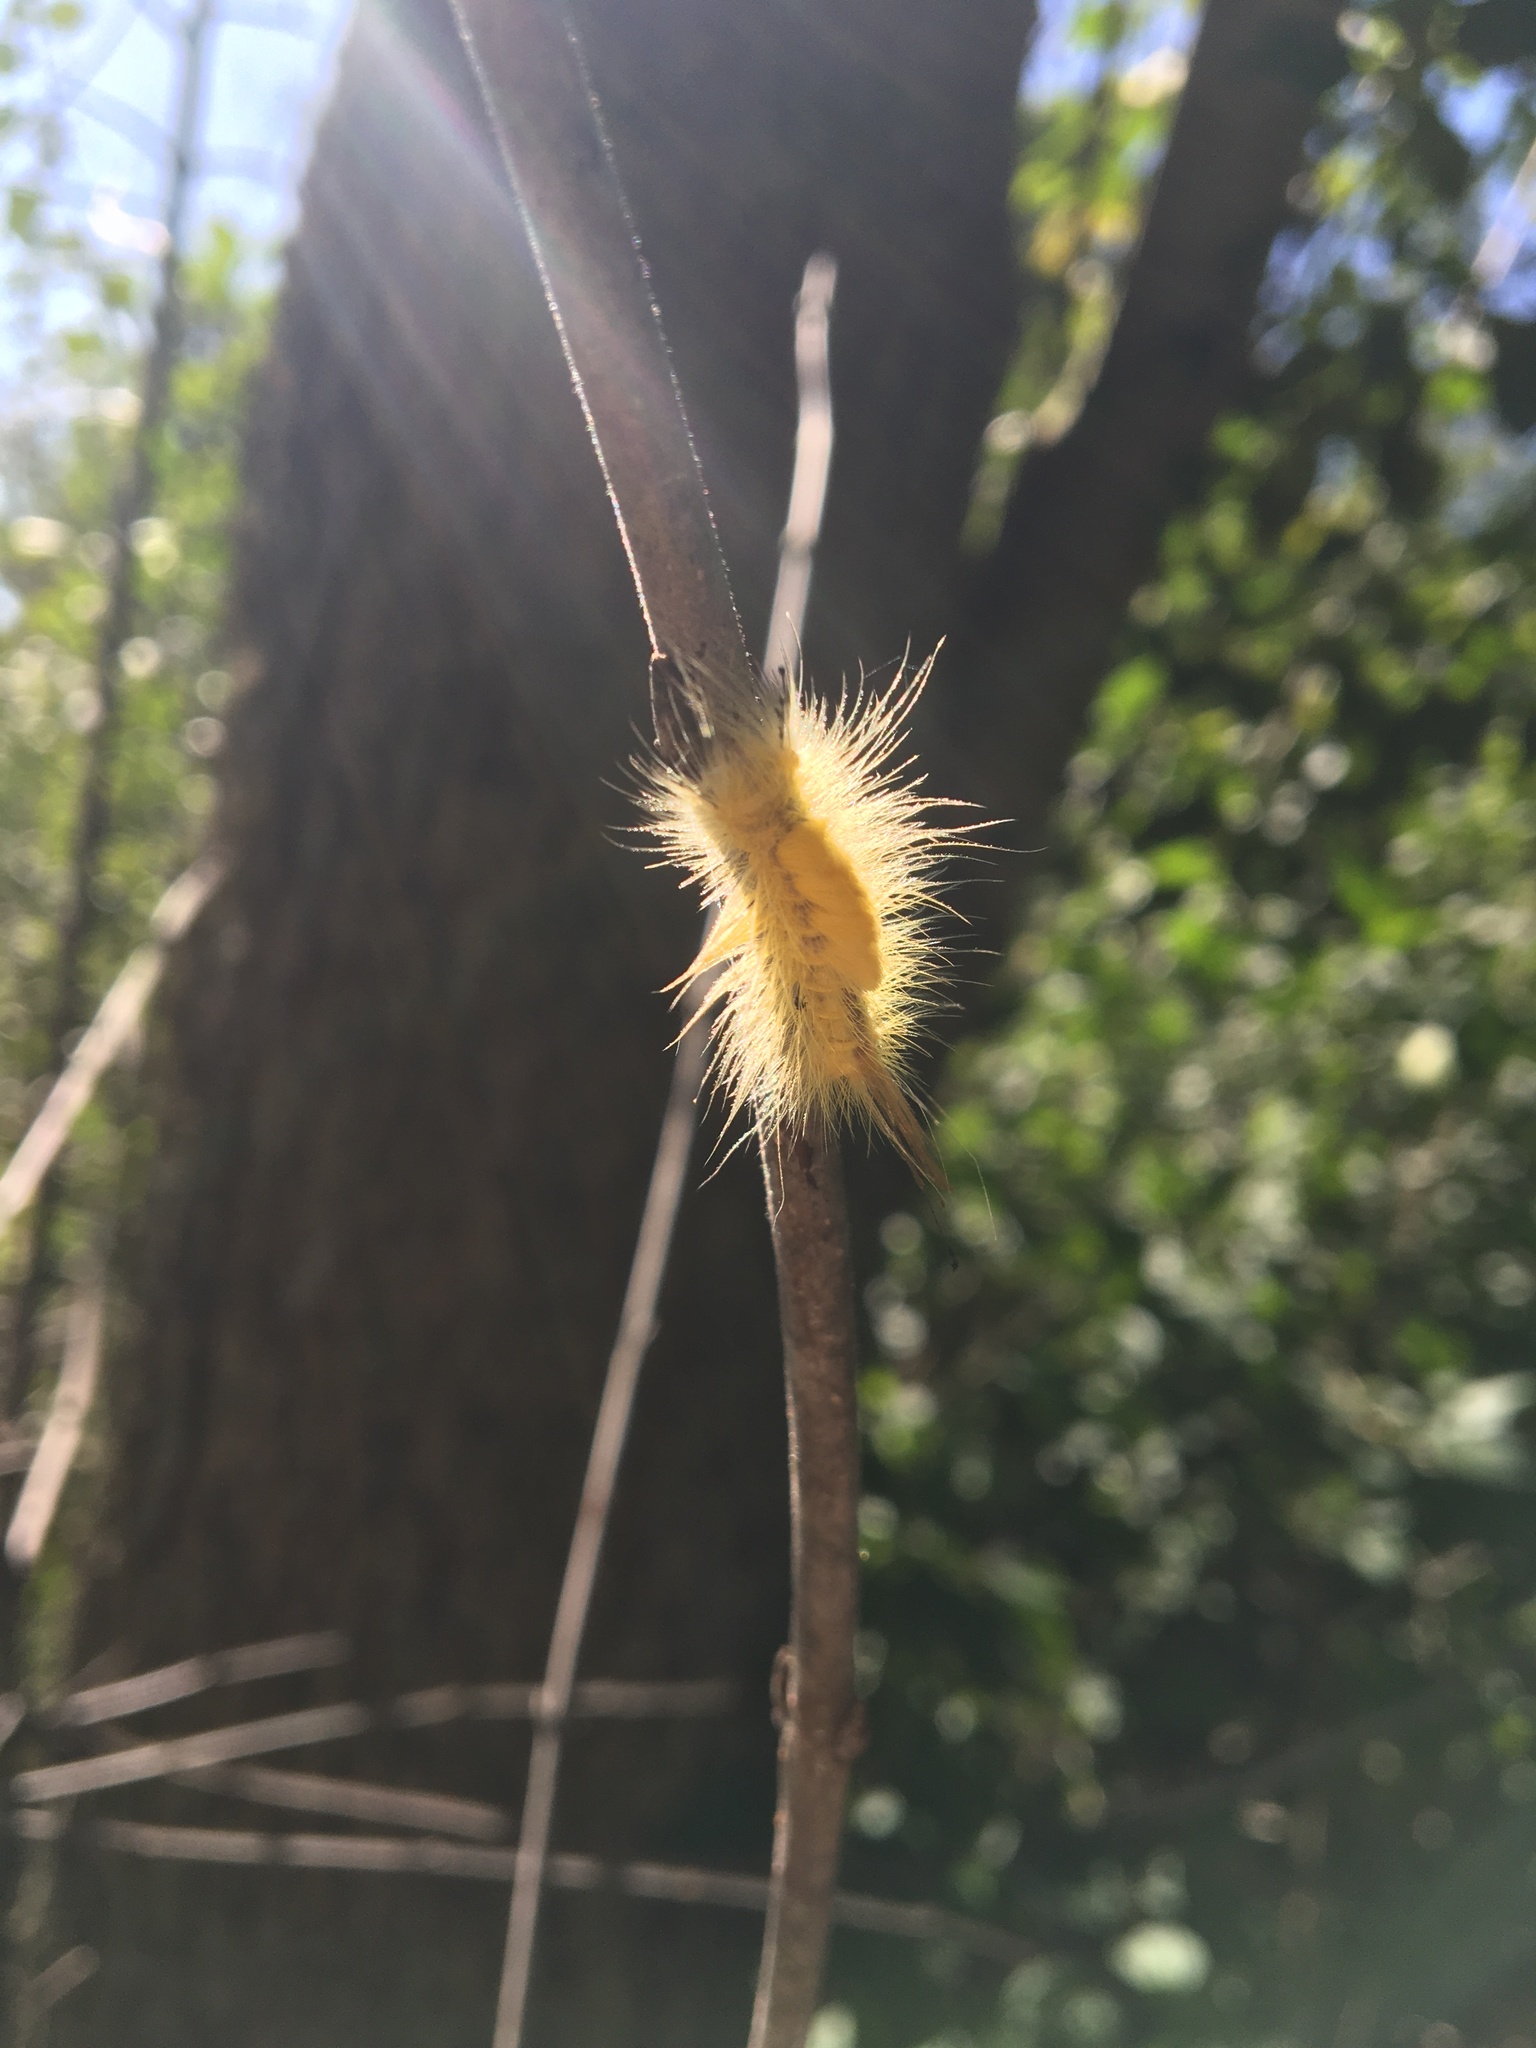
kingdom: Animalia
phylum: Arthropoda
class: Insecta
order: Lepidoptera
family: Erebidae
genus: Orgyia
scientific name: Orgyia definita
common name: Definite tussock moth
